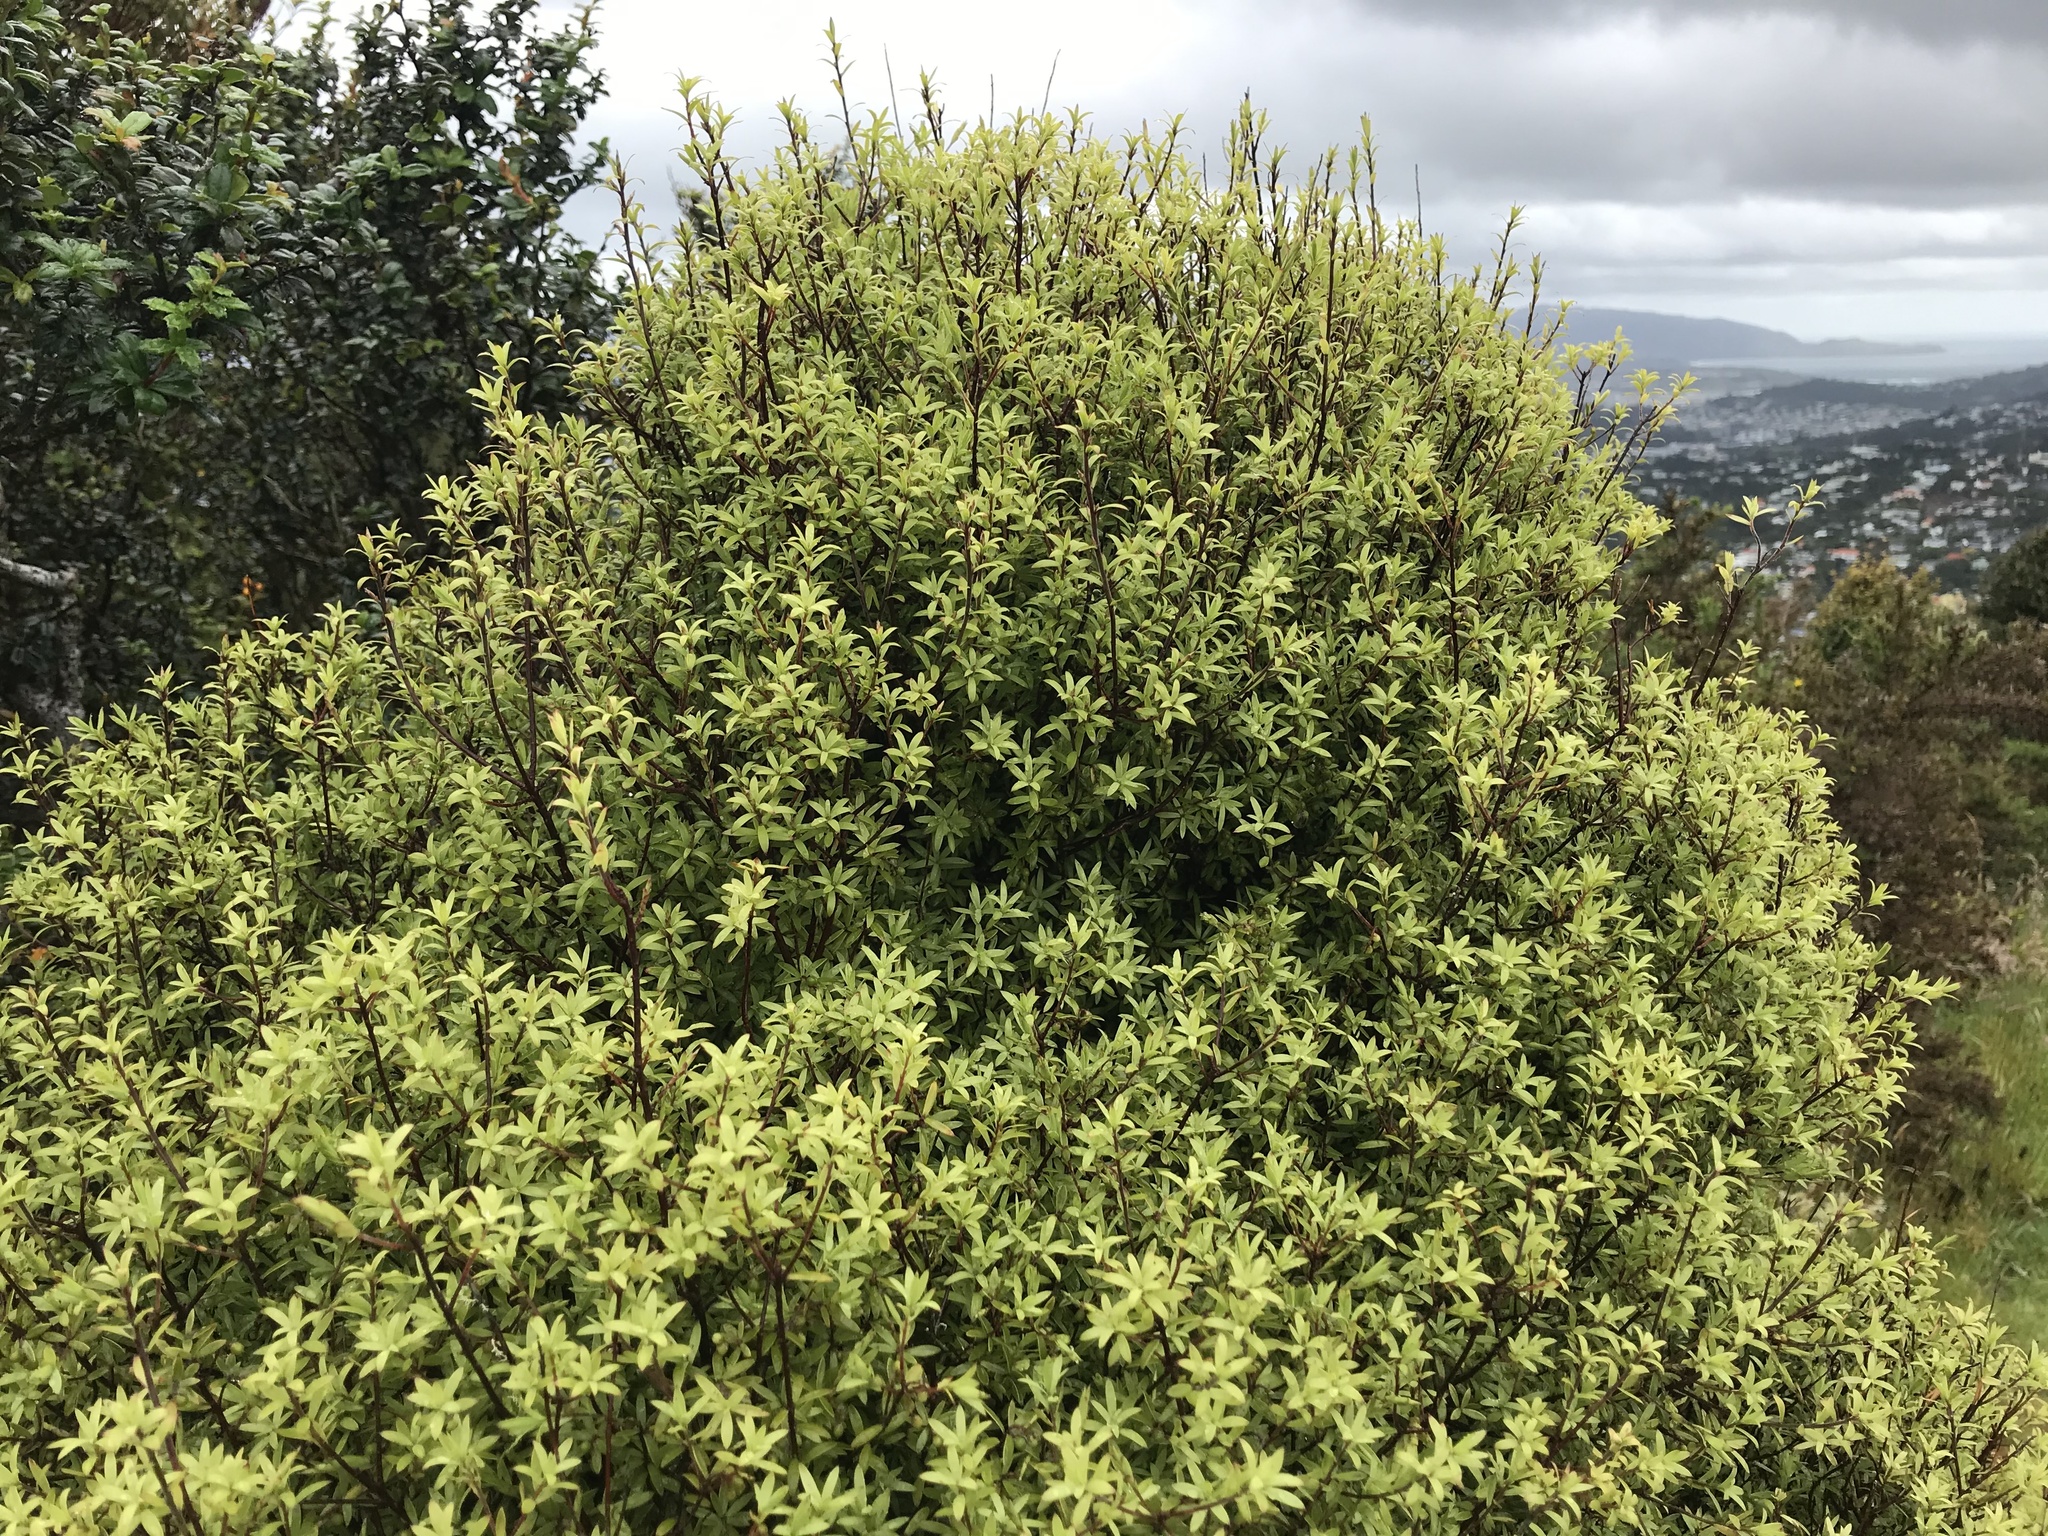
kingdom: Plantae
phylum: Tracheophyta
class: Magnoliopsida
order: Ericales
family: Ericaceae
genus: Leucopogon
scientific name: Leucopogon fasciculatus
